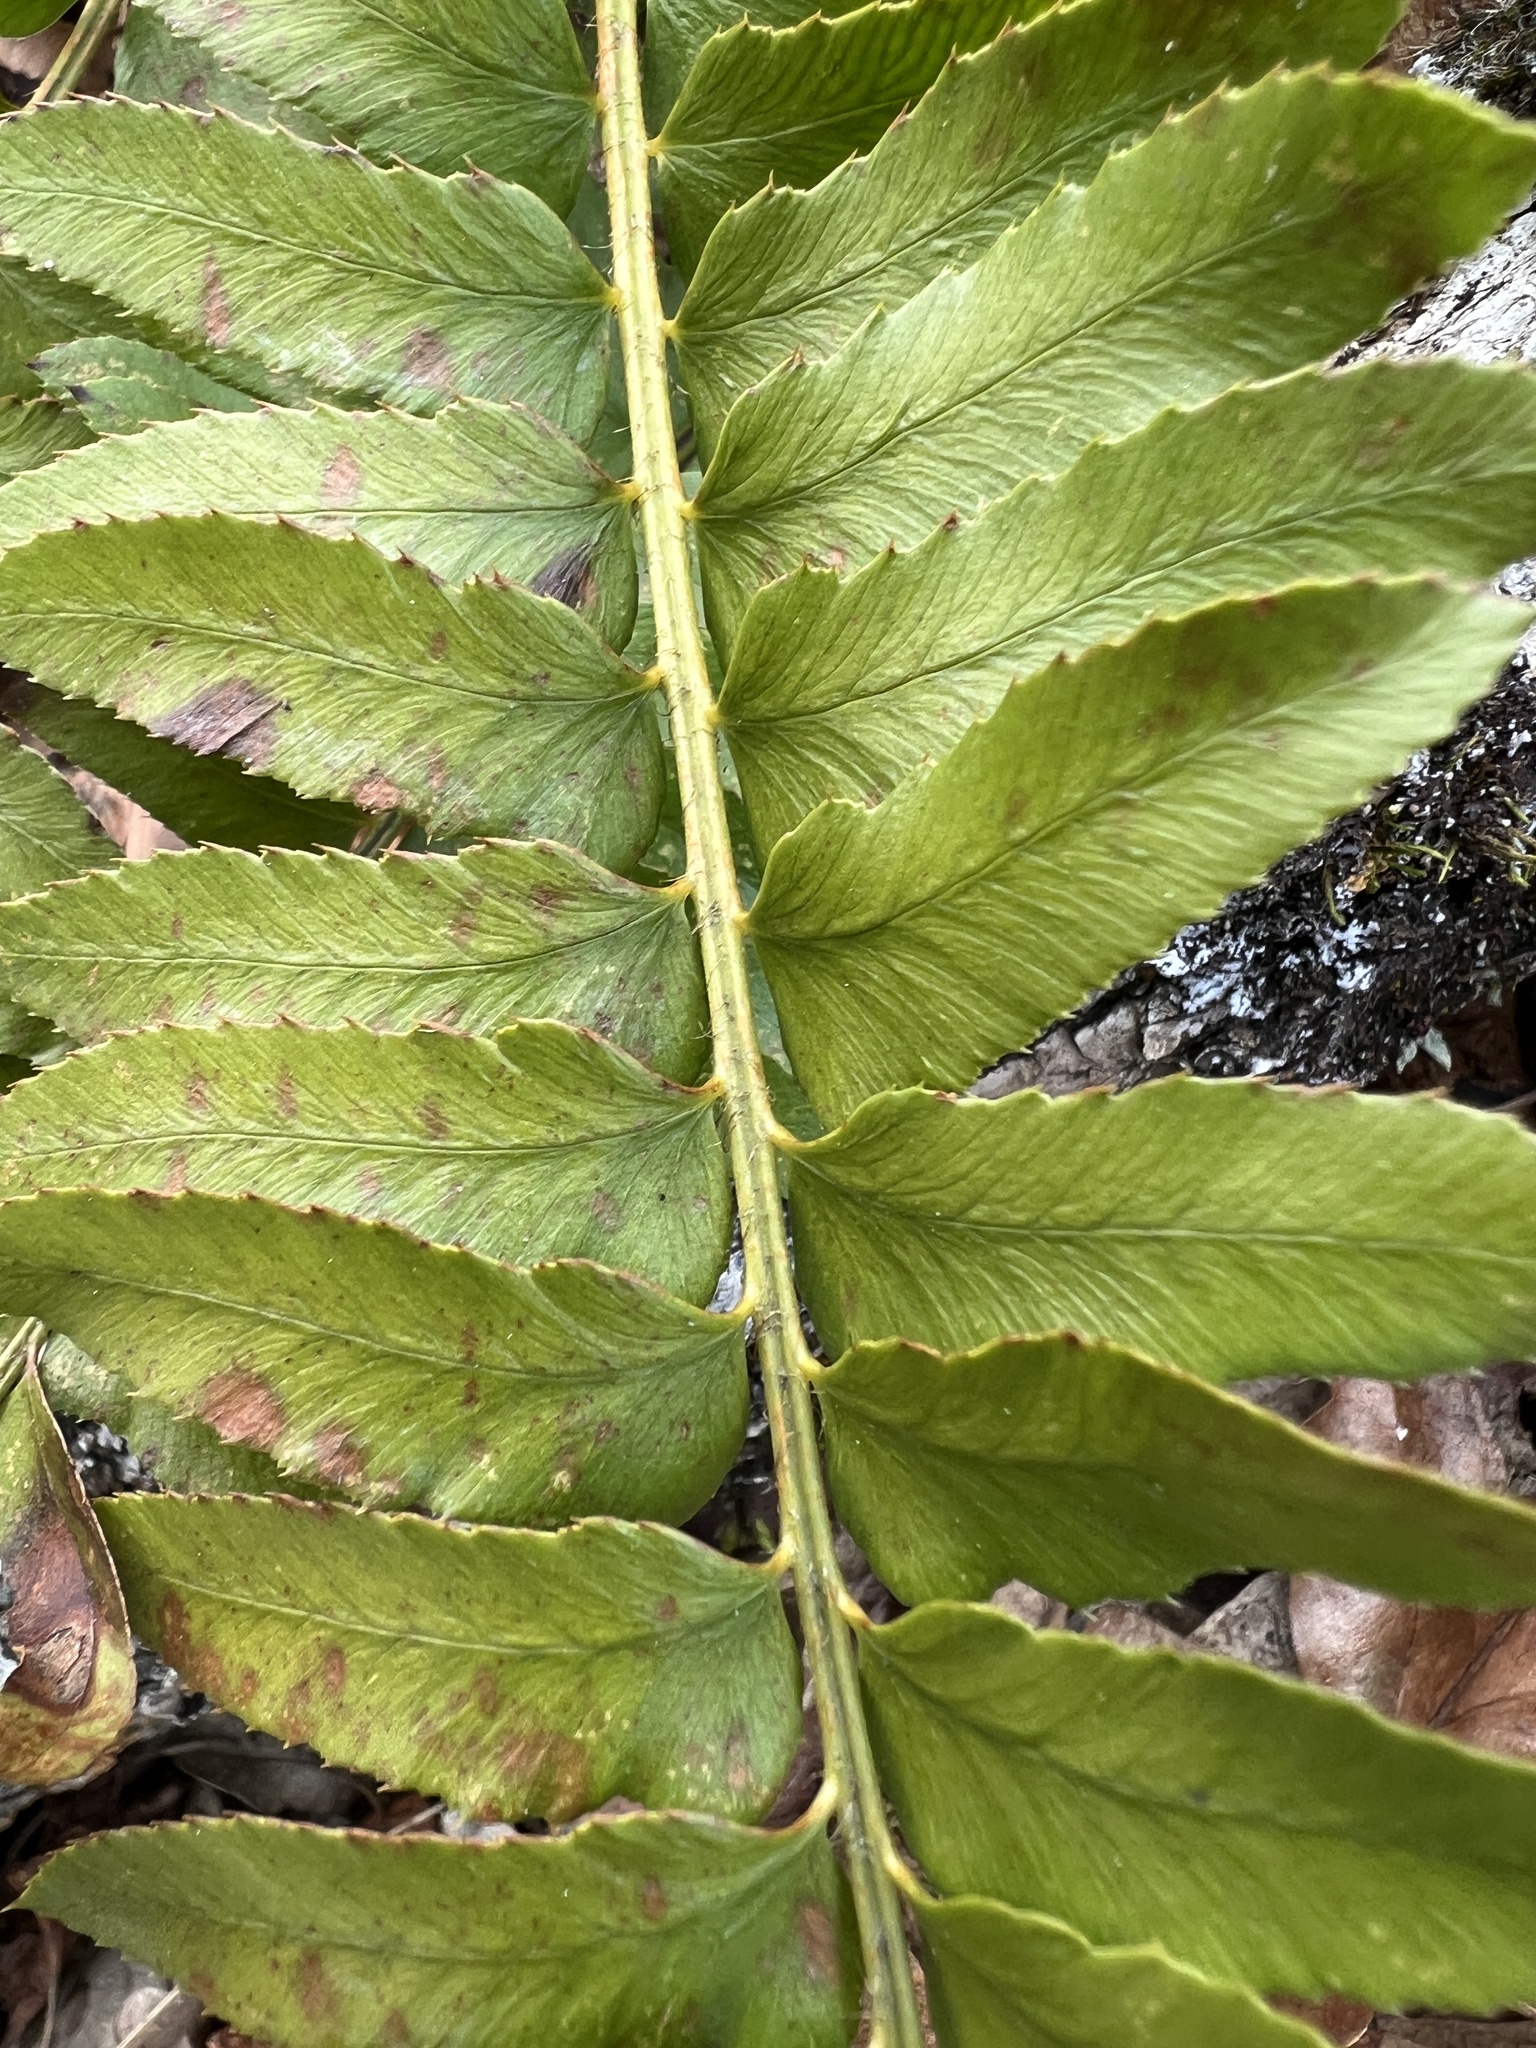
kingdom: Plantae
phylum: Tracheophyta
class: Polypodiopsida
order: Polypodiales
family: Dryopteridaceae
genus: Polystichum
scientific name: Polystichum imbricans
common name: Dwarf western sword fern
